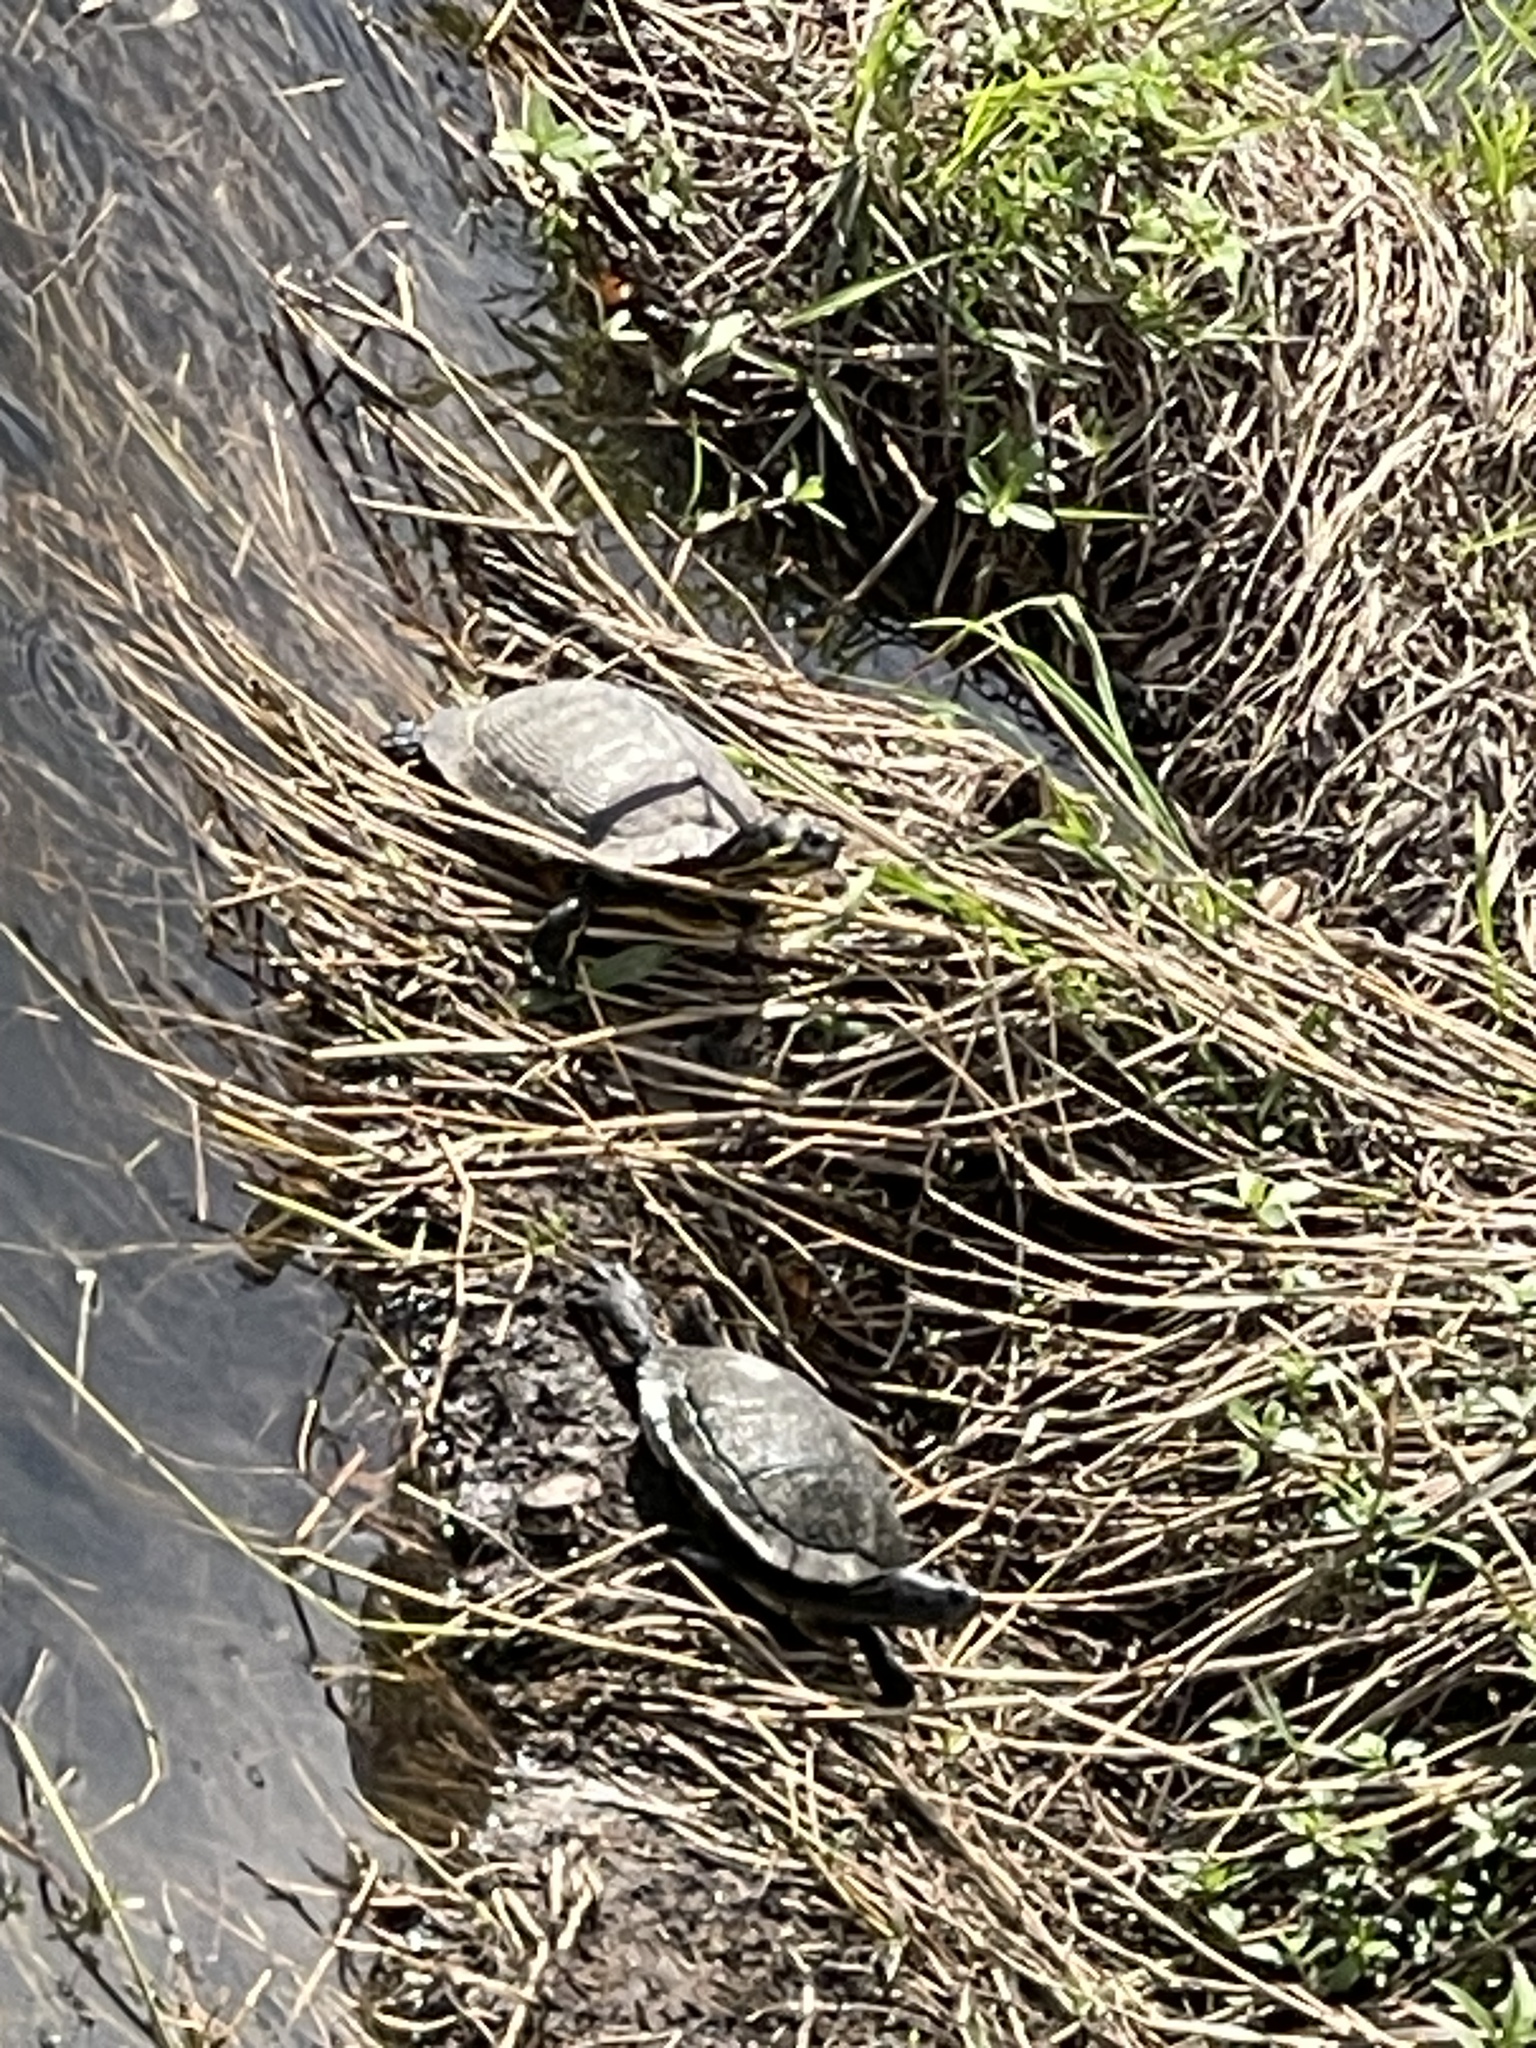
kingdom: Animalia
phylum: Chordata
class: Testudines
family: Emydidae
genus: Trachemys
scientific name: Trachemys scripta
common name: Slider
